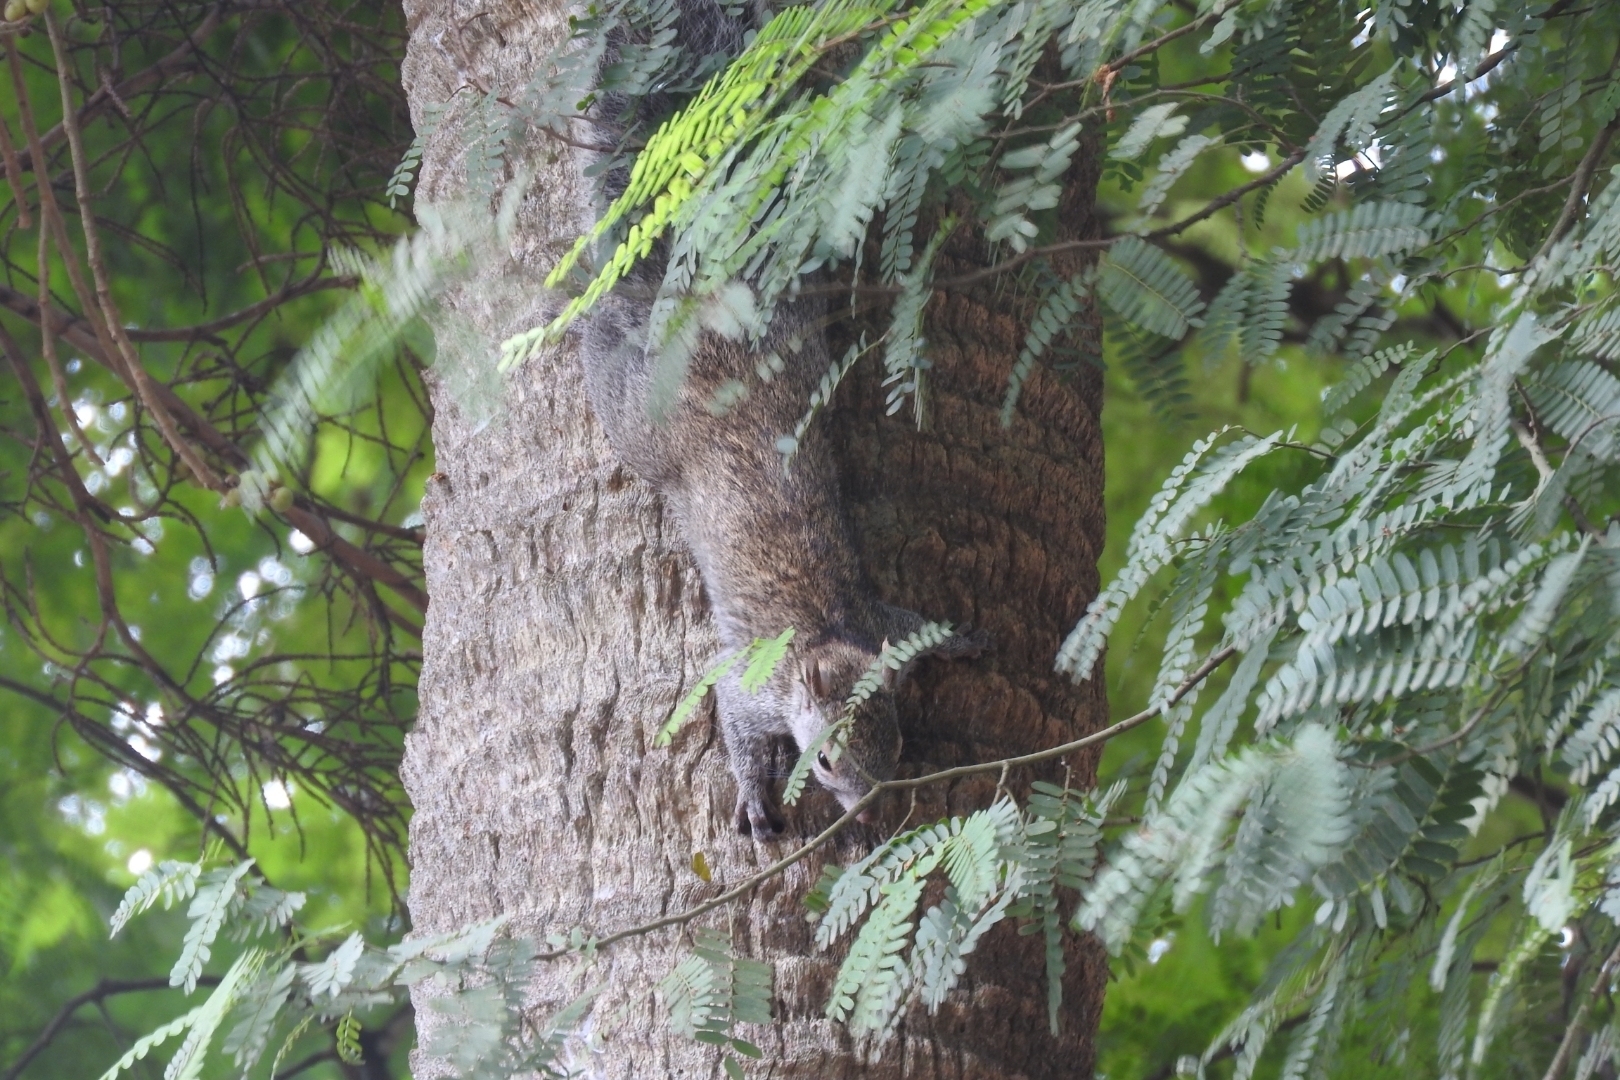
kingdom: Animalia
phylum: Chordata
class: Mammalia
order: Rodentia
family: Sciuridae
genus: Sciurus
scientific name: Sciurus yucatanensis
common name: Yucatan squirrel
